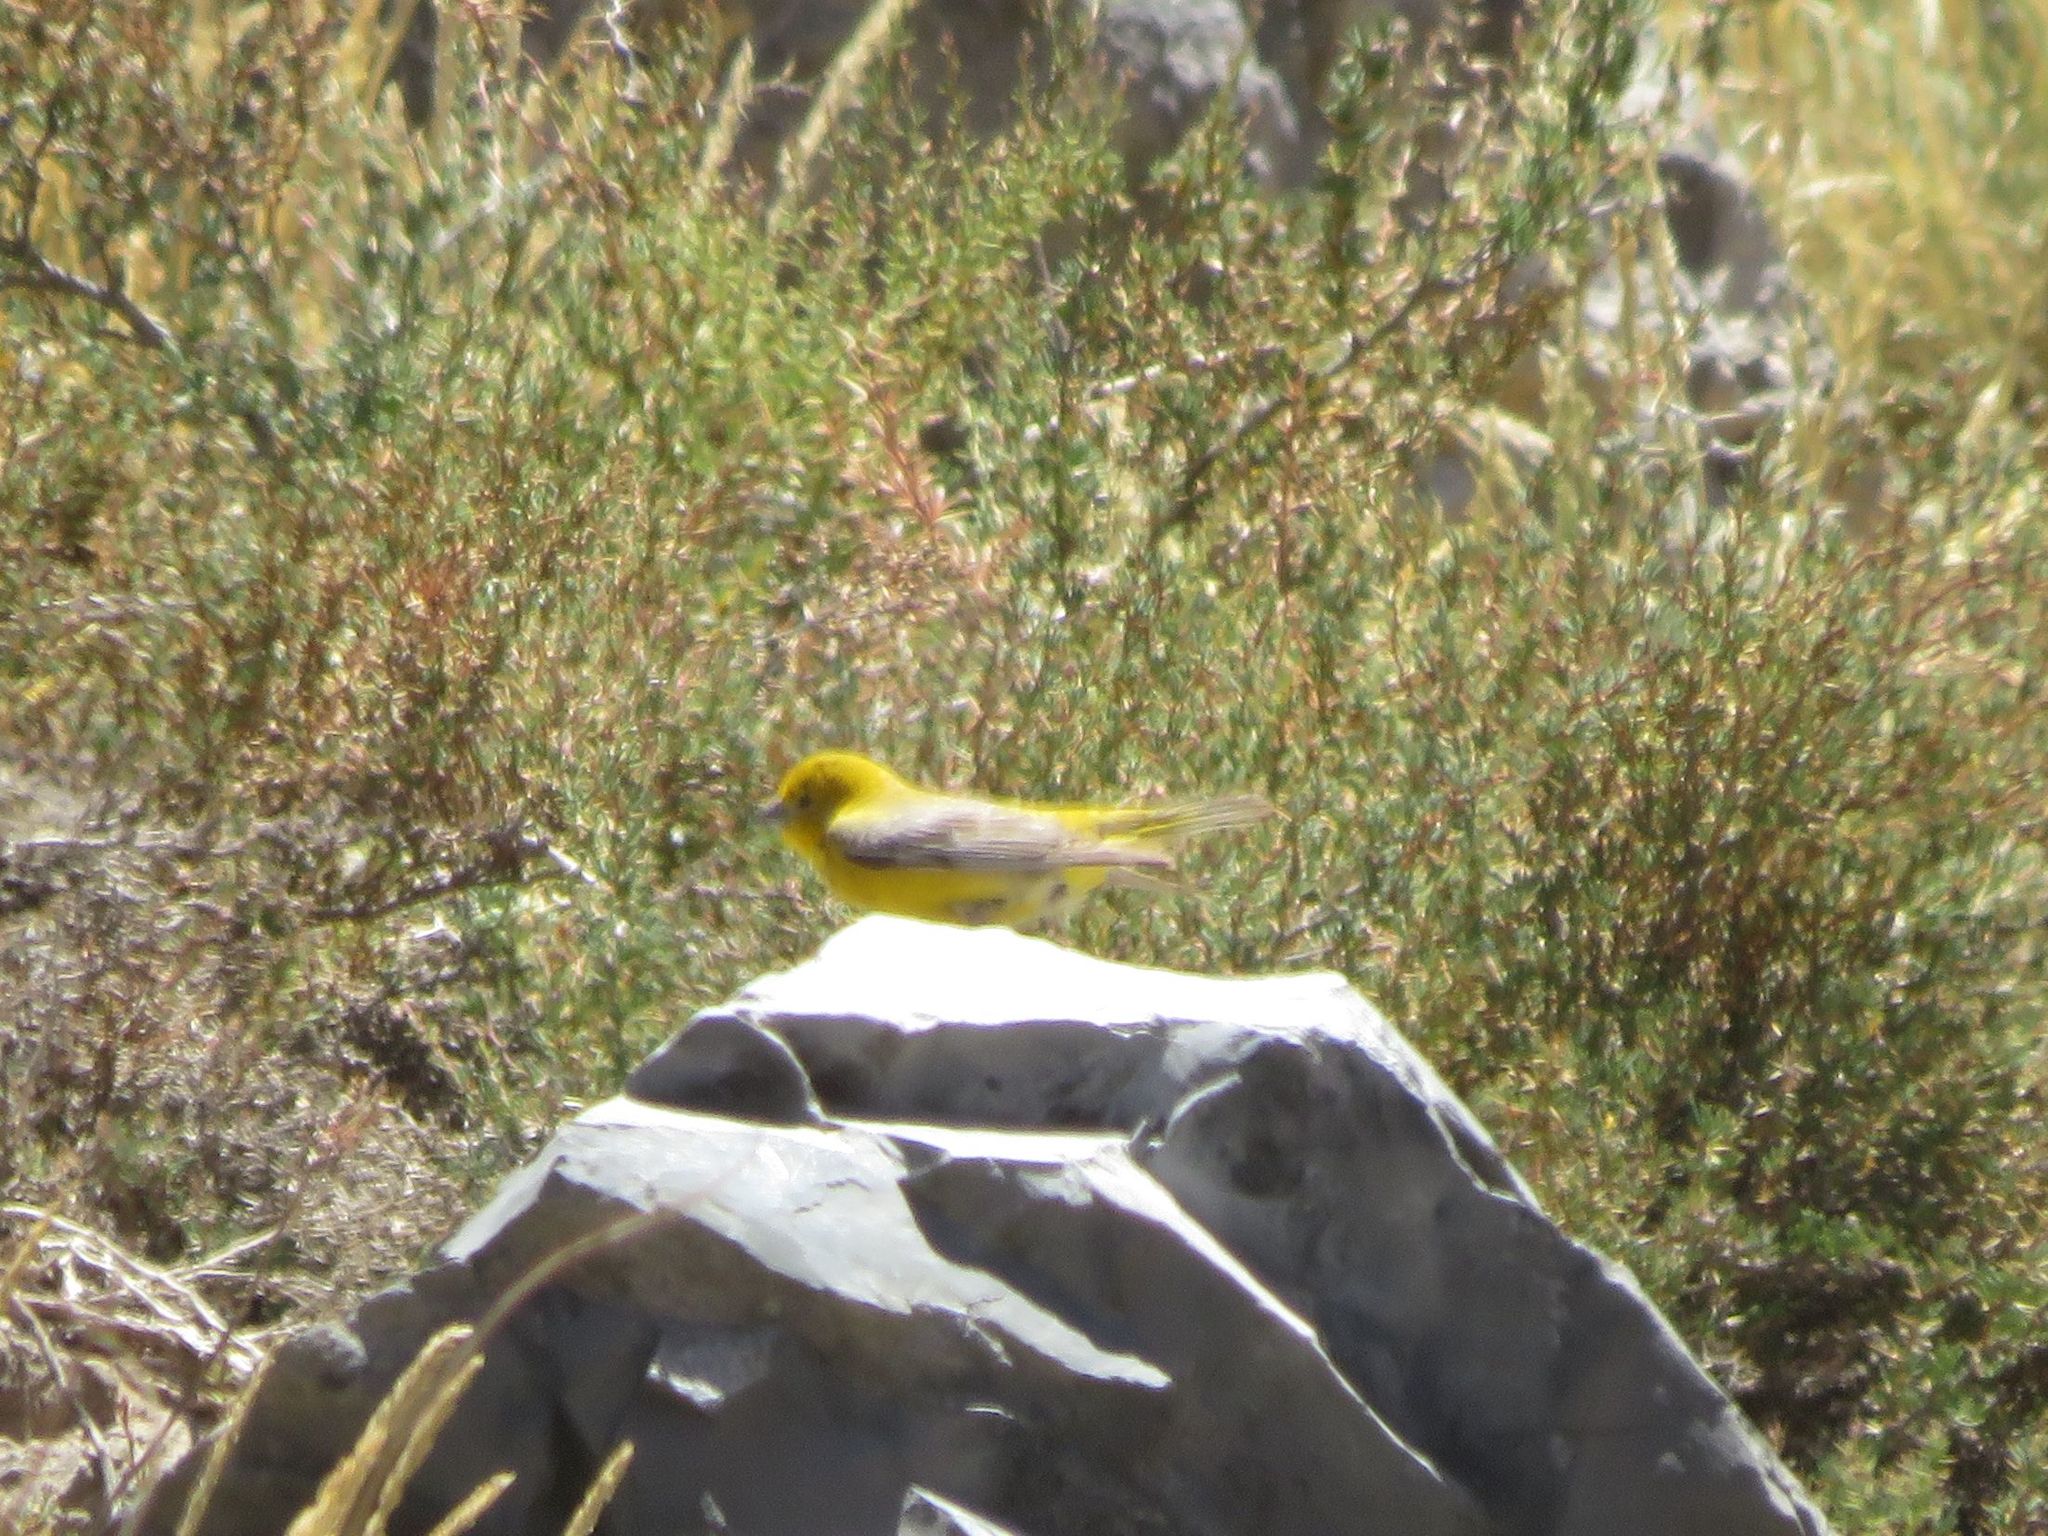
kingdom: Animalia
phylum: Chordata
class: Aves
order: Passeriformes
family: Thraupidae
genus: Sicalis
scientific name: Sicalis auriventris
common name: Greater yellow finch
